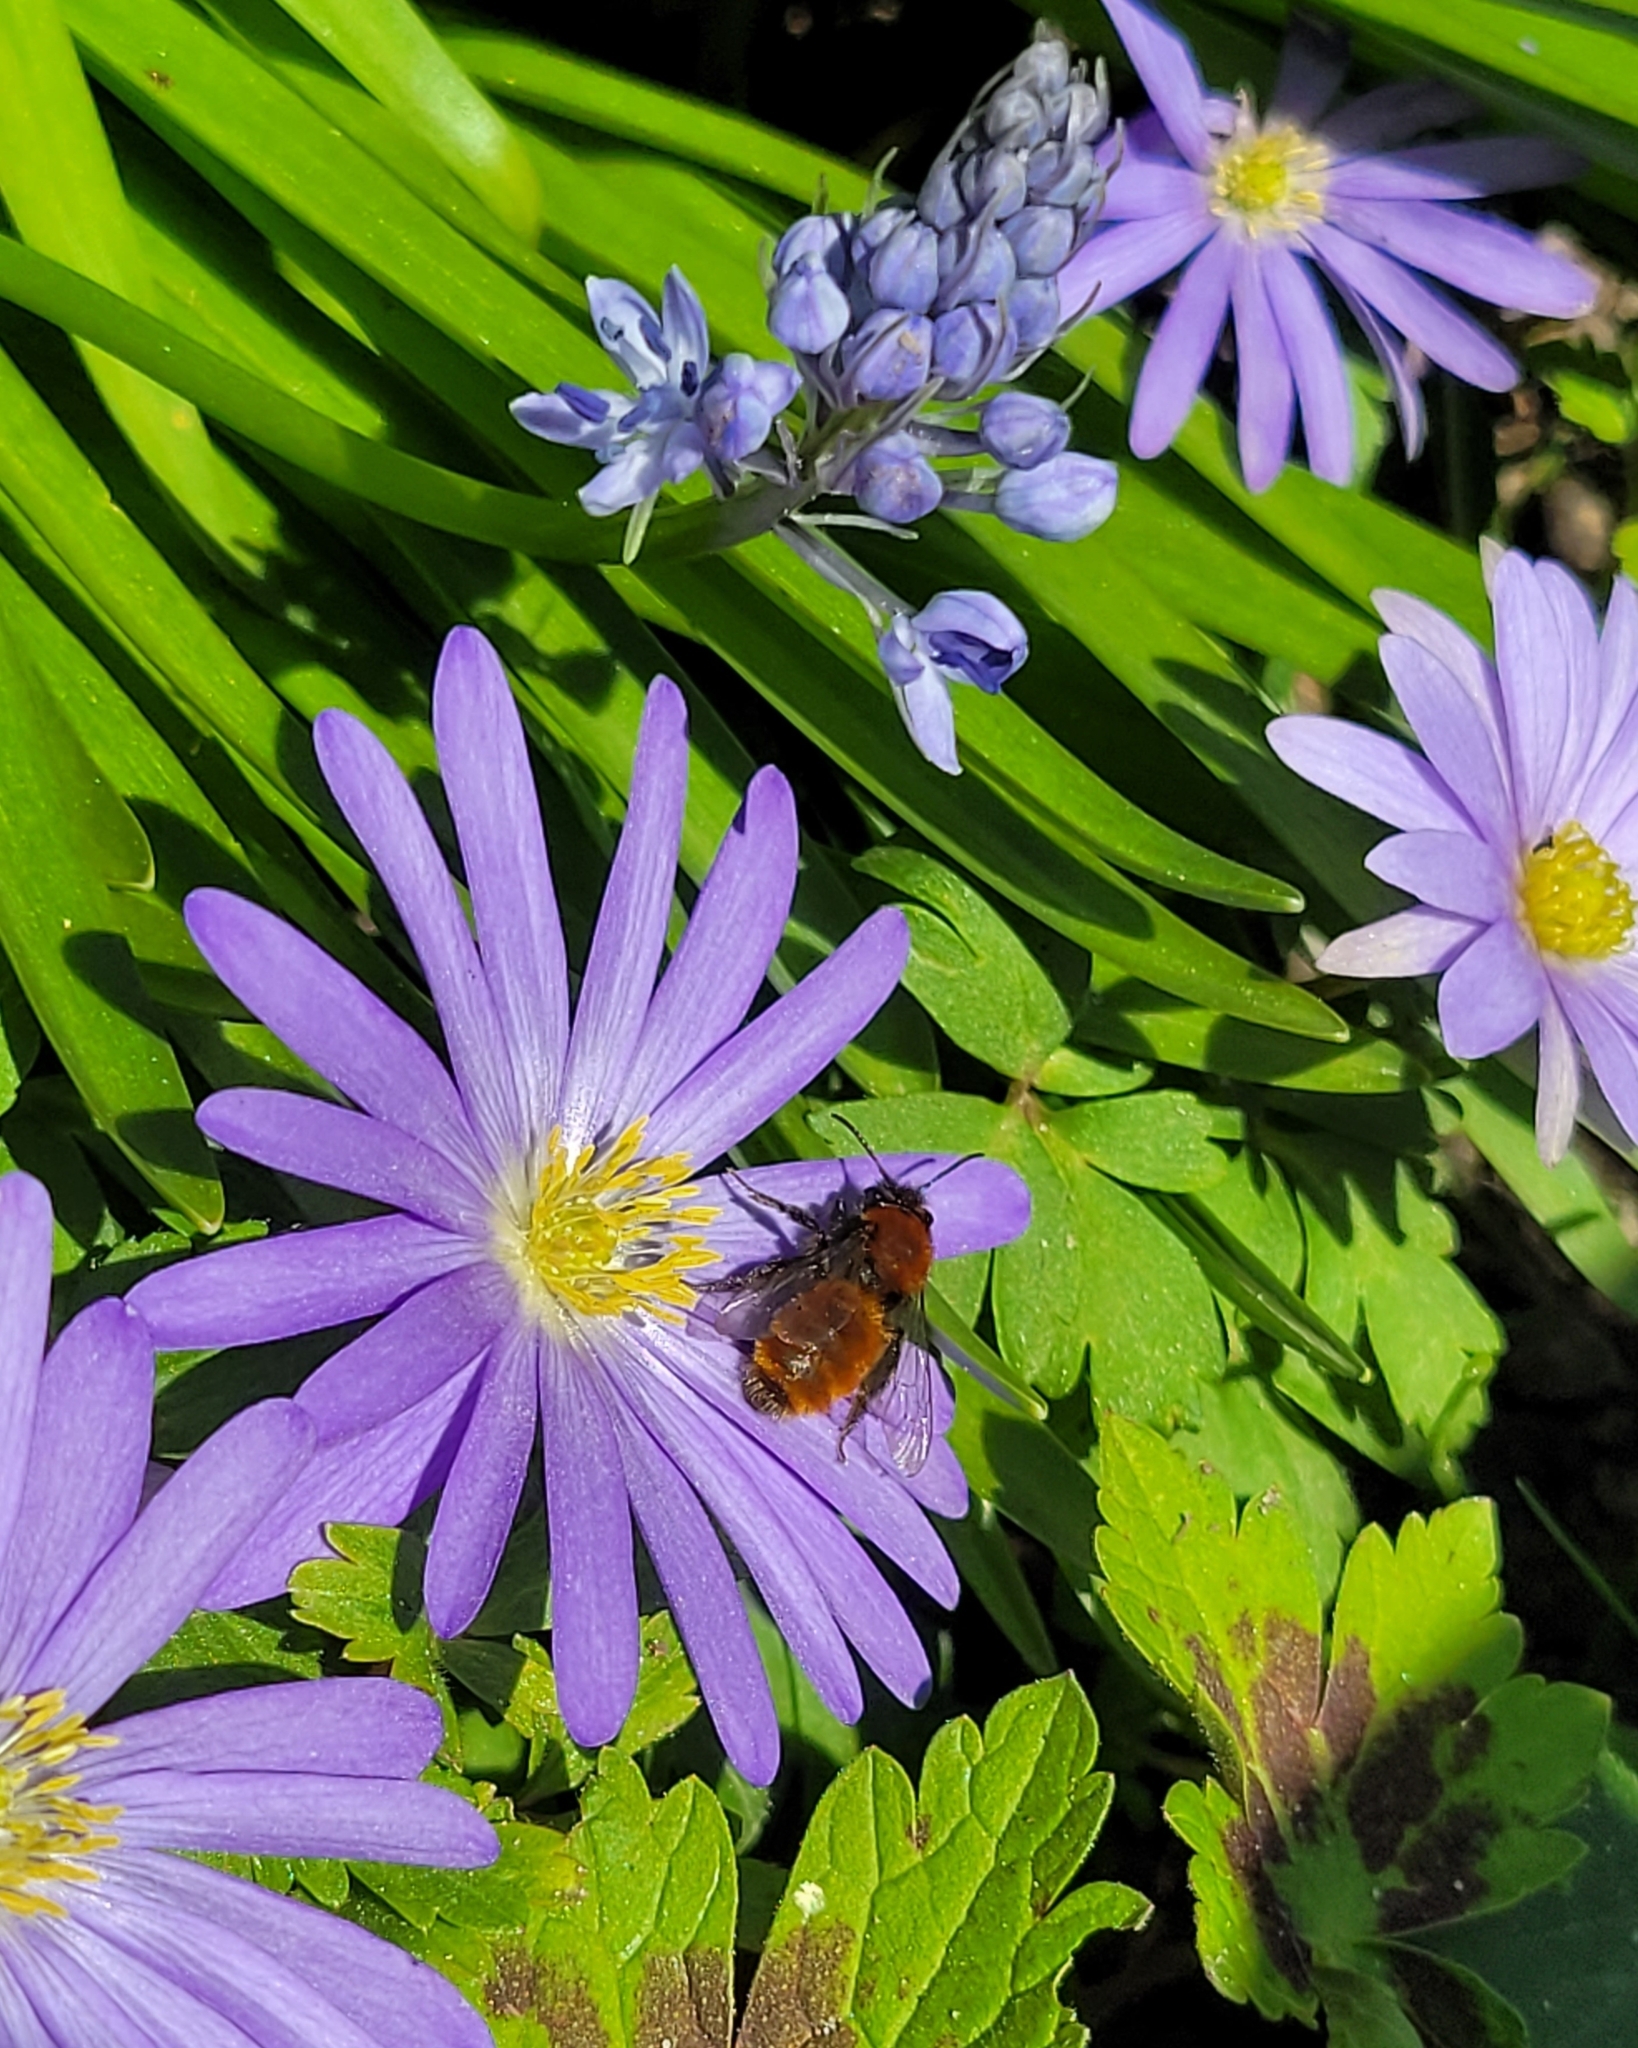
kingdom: Animalia
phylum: Arthropoda
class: Insecta
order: Hymenoptera
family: Andrenidae
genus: Andrena
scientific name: Andrena fulva
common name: Tawny mining bee
